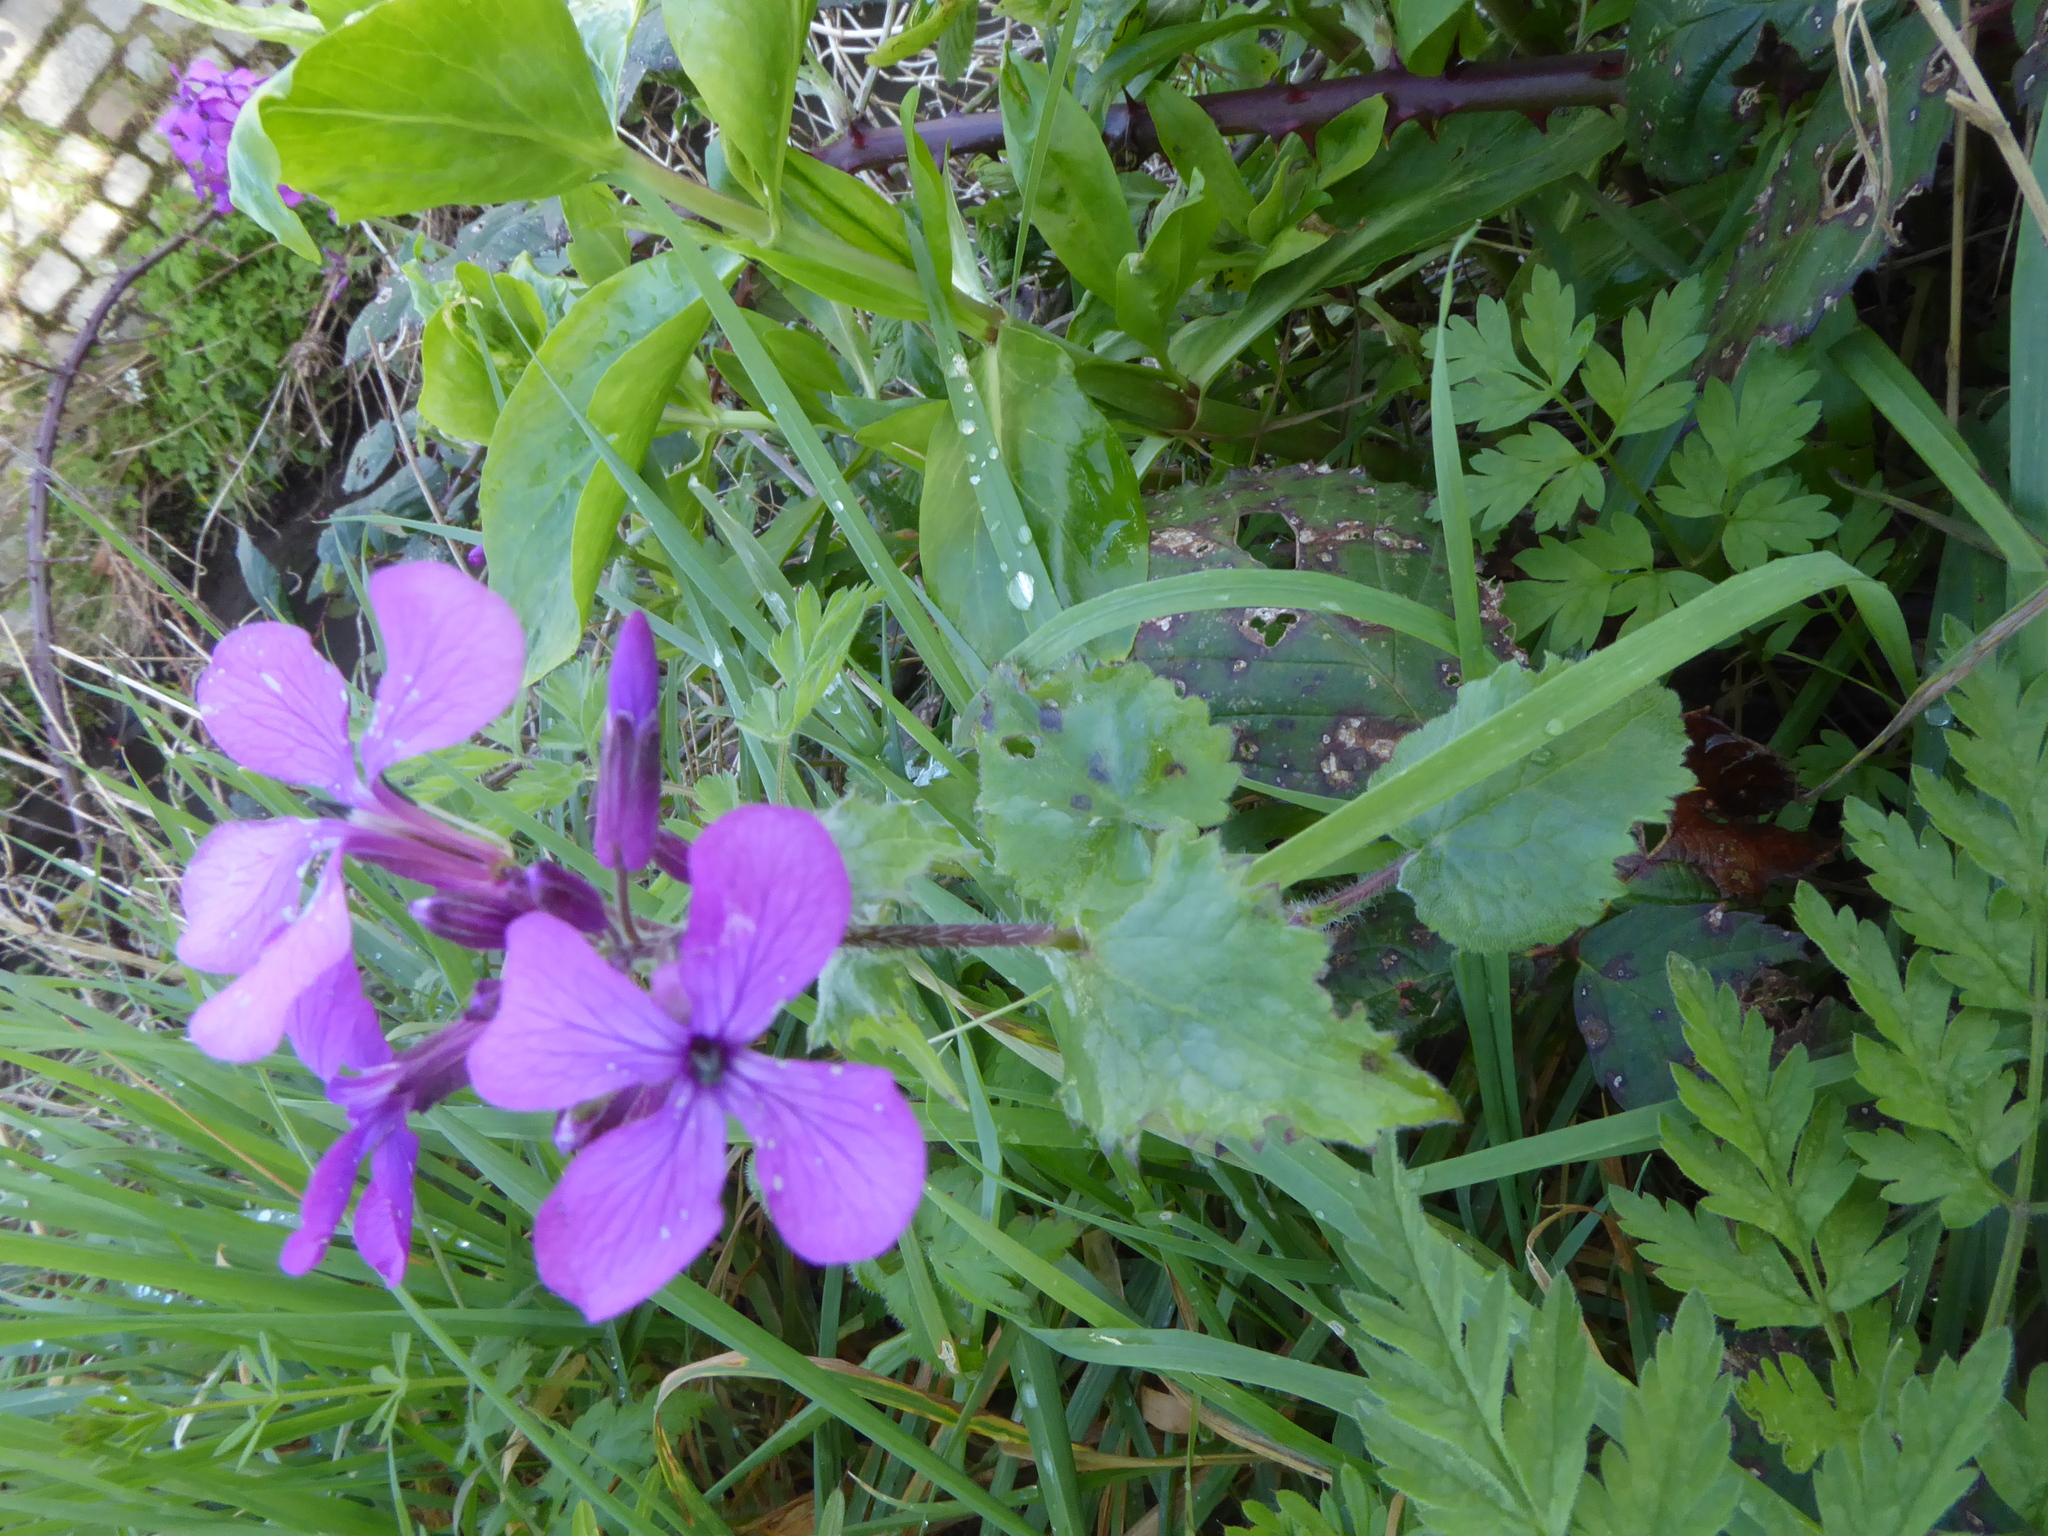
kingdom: Plantae
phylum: Tracheophyta
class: Magnoliopsida
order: Brassicales
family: Brassicaceae
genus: Lunaria
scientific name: Lunaria annua
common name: Honesty
